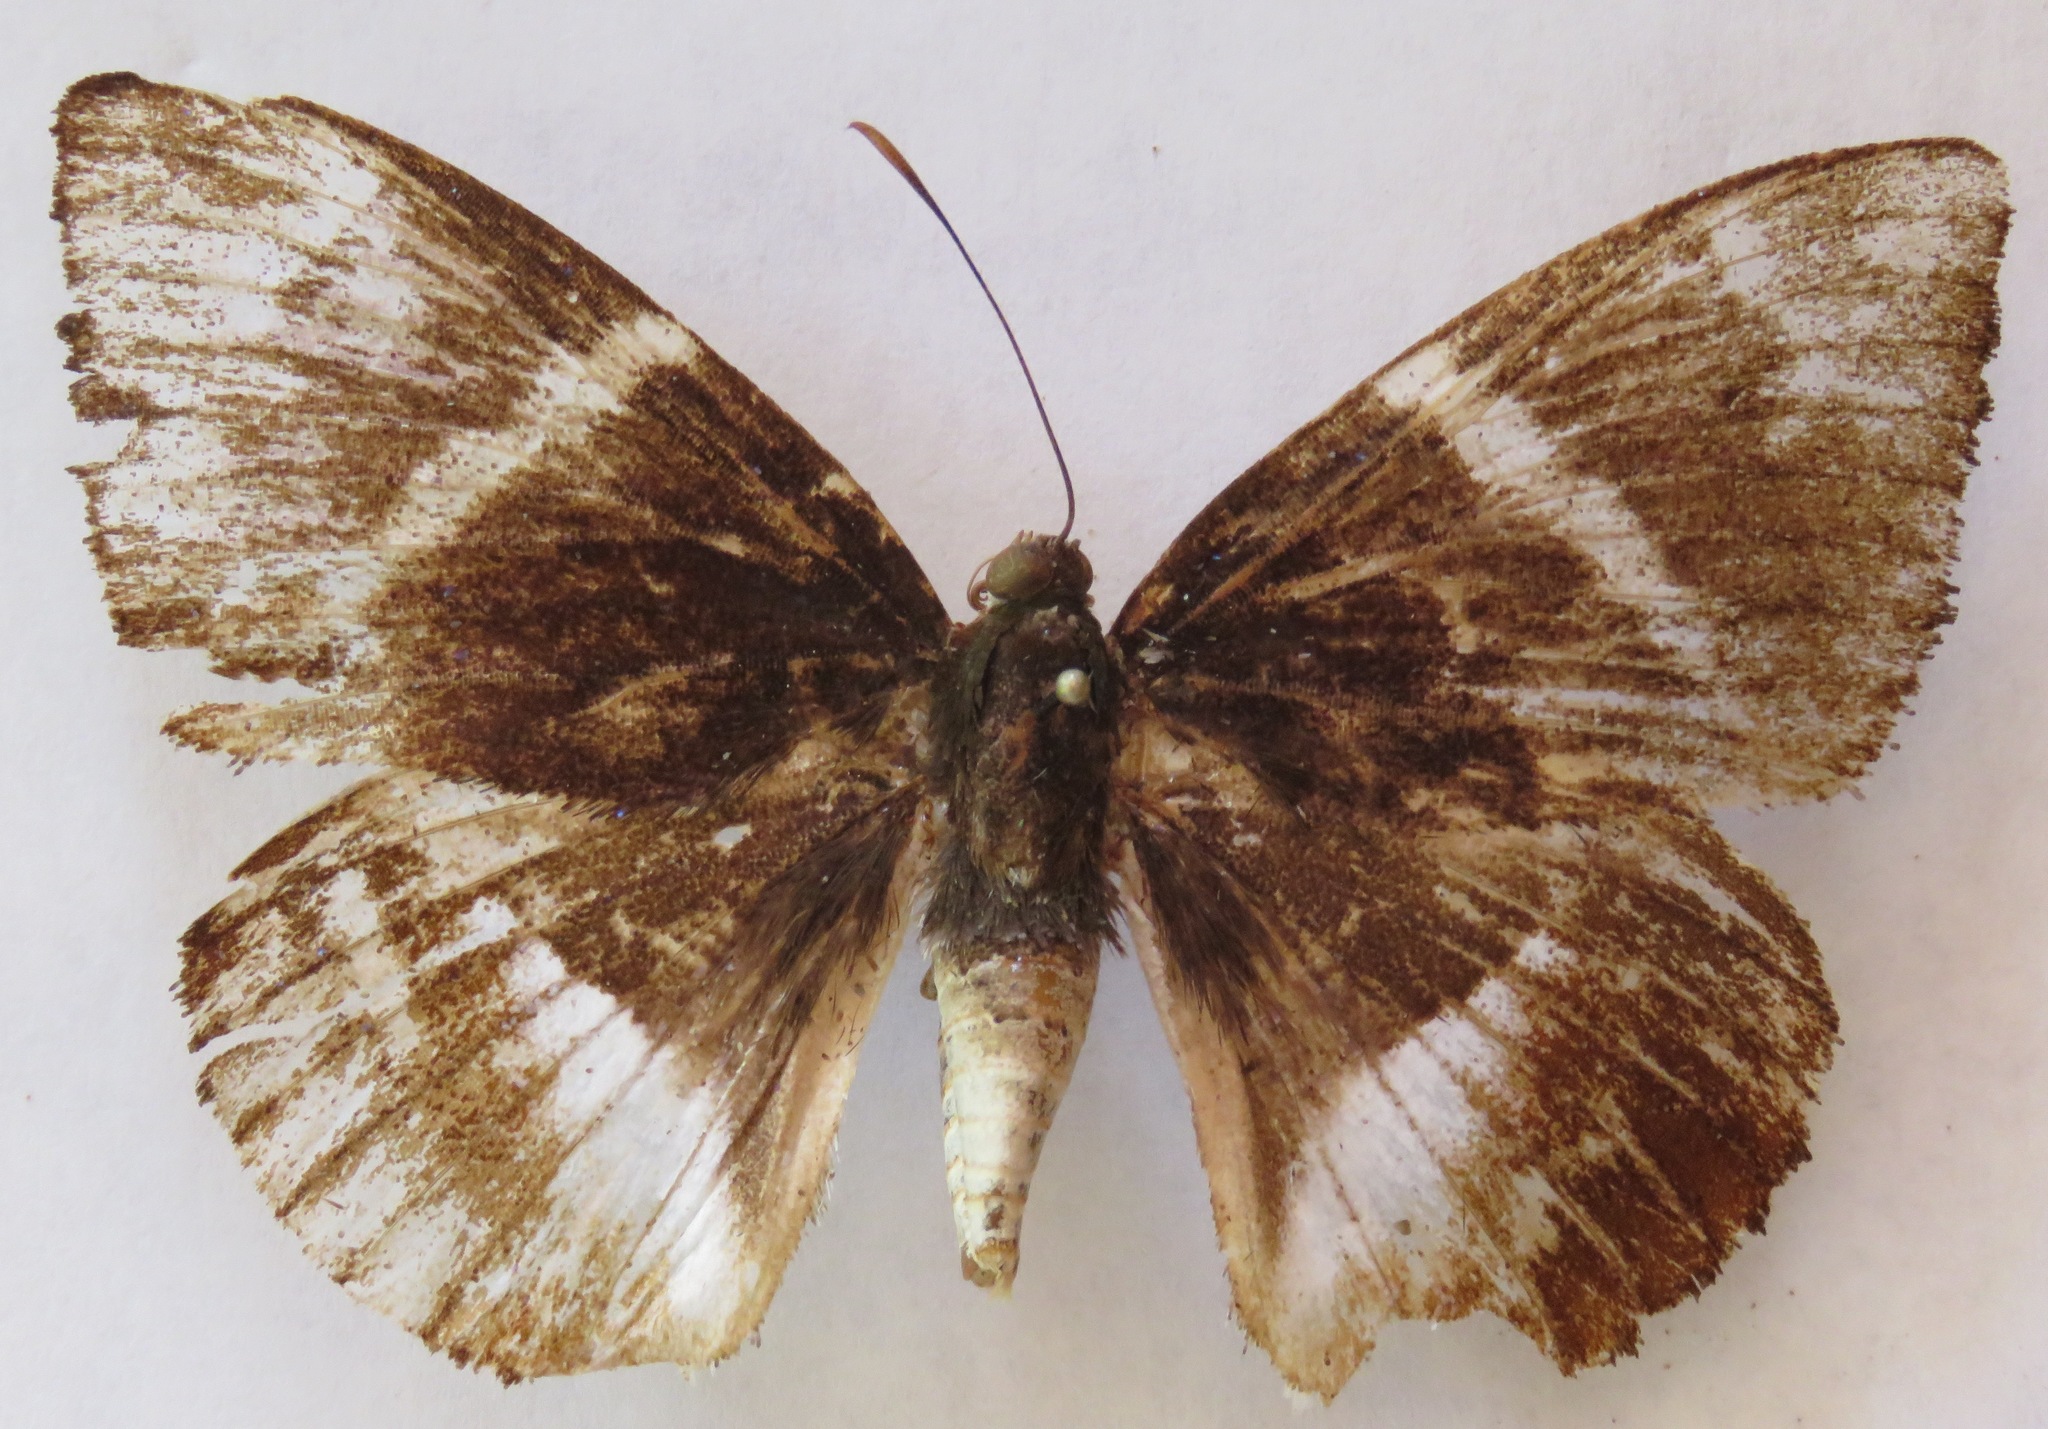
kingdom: Animalia
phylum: Arthropoda
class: Insecta
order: Lepidoptera
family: Castniidae
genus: Castniomera
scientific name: Castniomera atymnius
